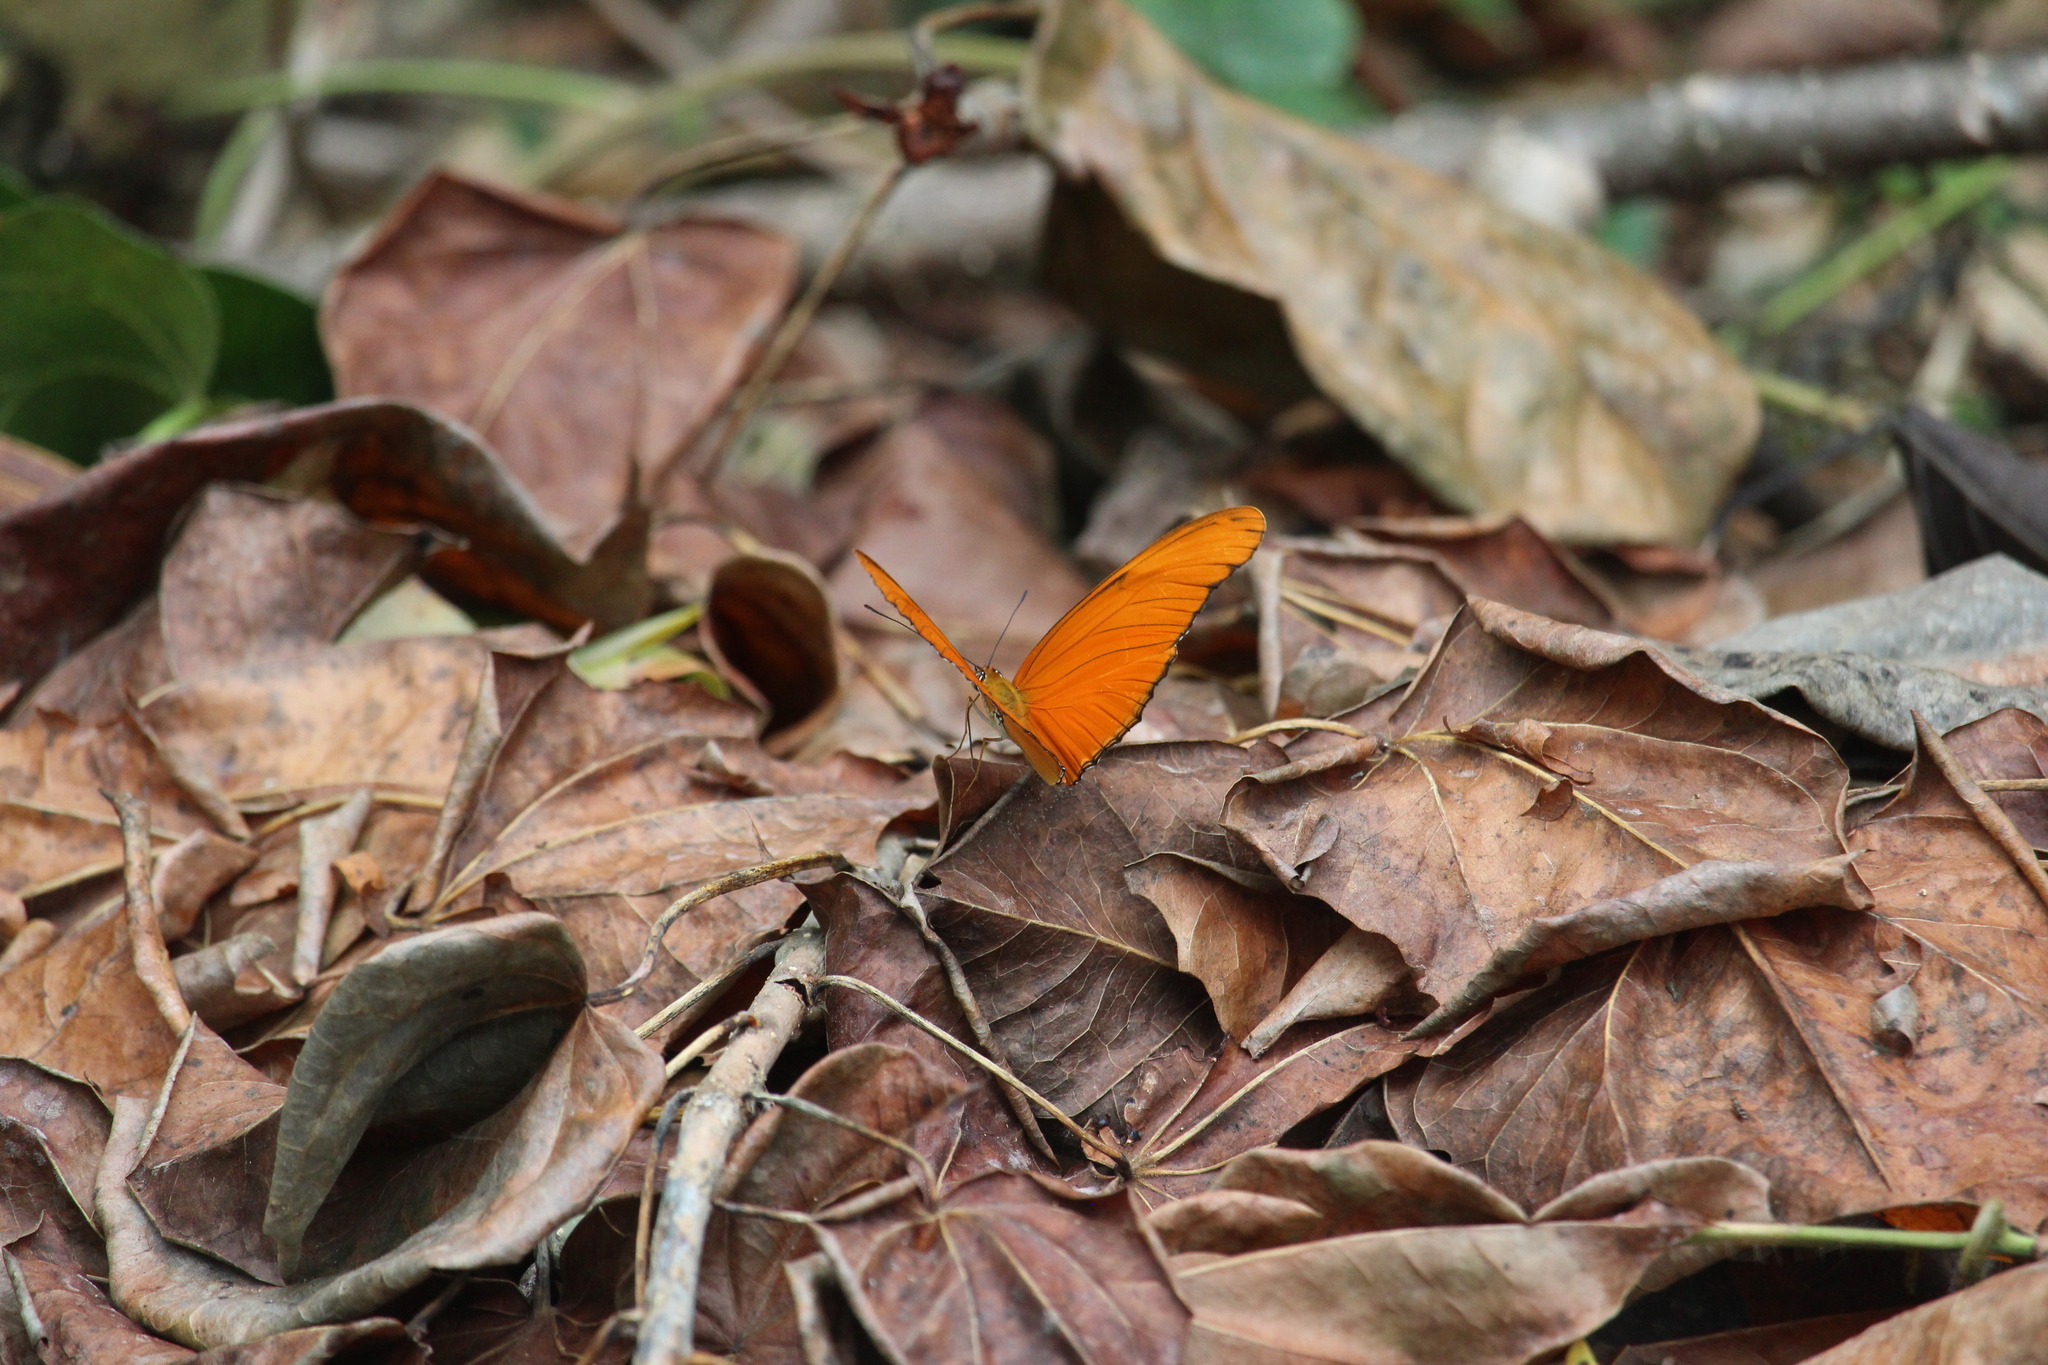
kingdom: Animalia
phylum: Arthropoda
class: Insecta
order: Lepidoptera
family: Nymphalidae
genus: Dryas
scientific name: Dryas iulia
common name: Flambeau
